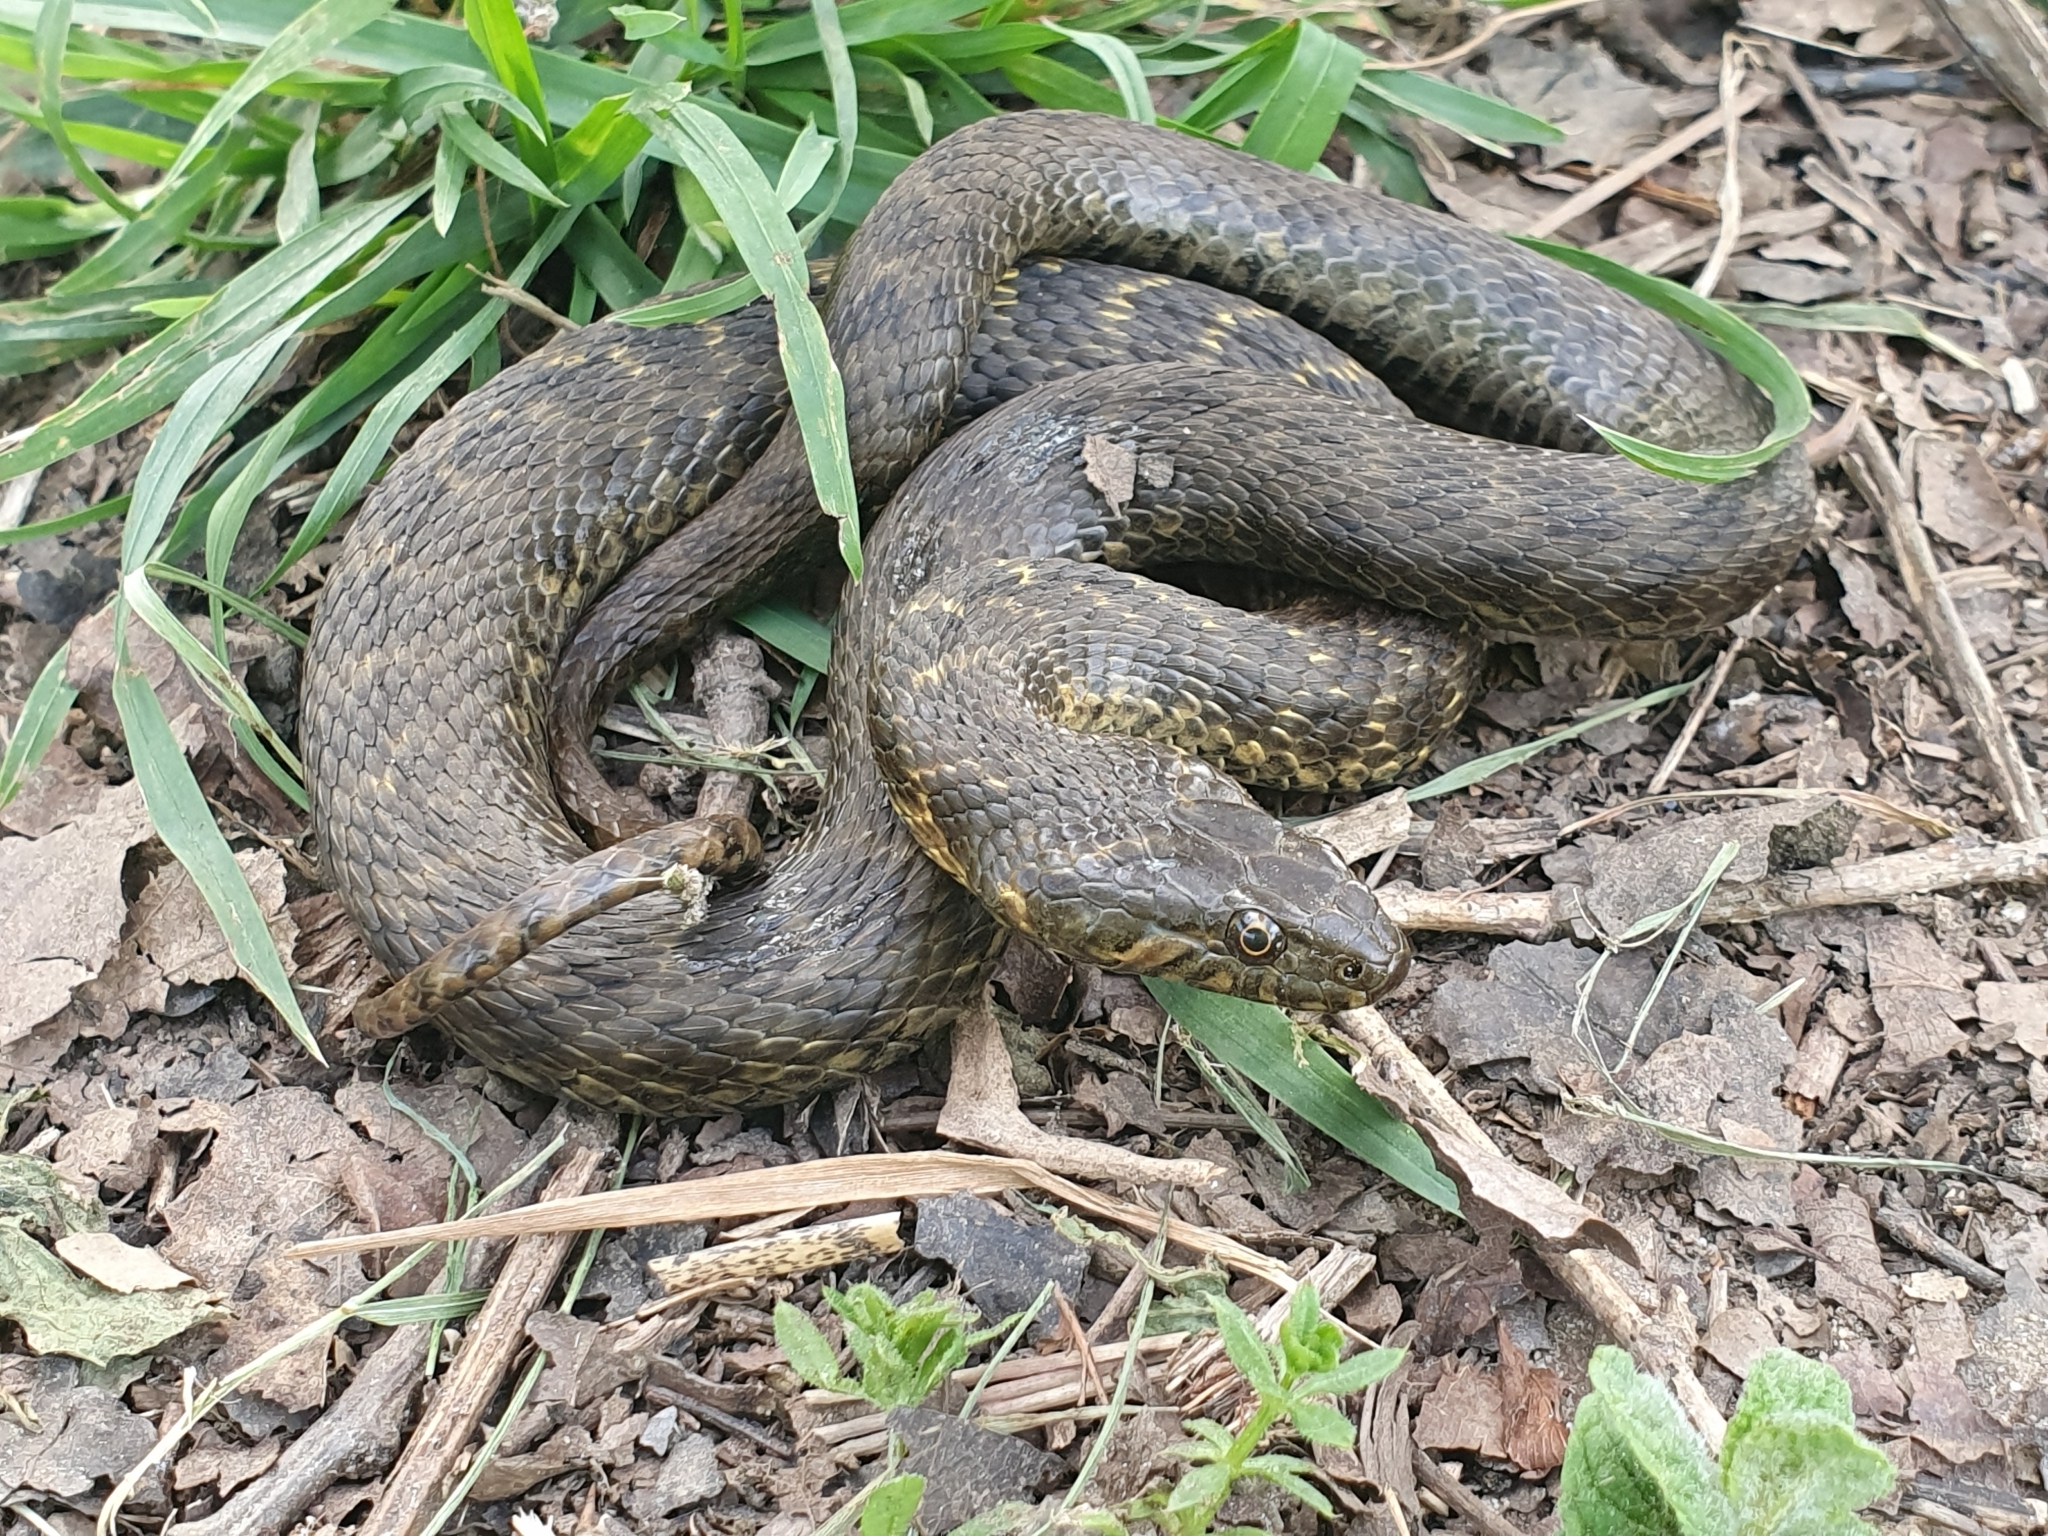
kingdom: Animalia
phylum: Chordata
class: Squamata
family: Colubridae
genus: Natrix
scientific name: Natrix maura
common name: Viperine water snake
